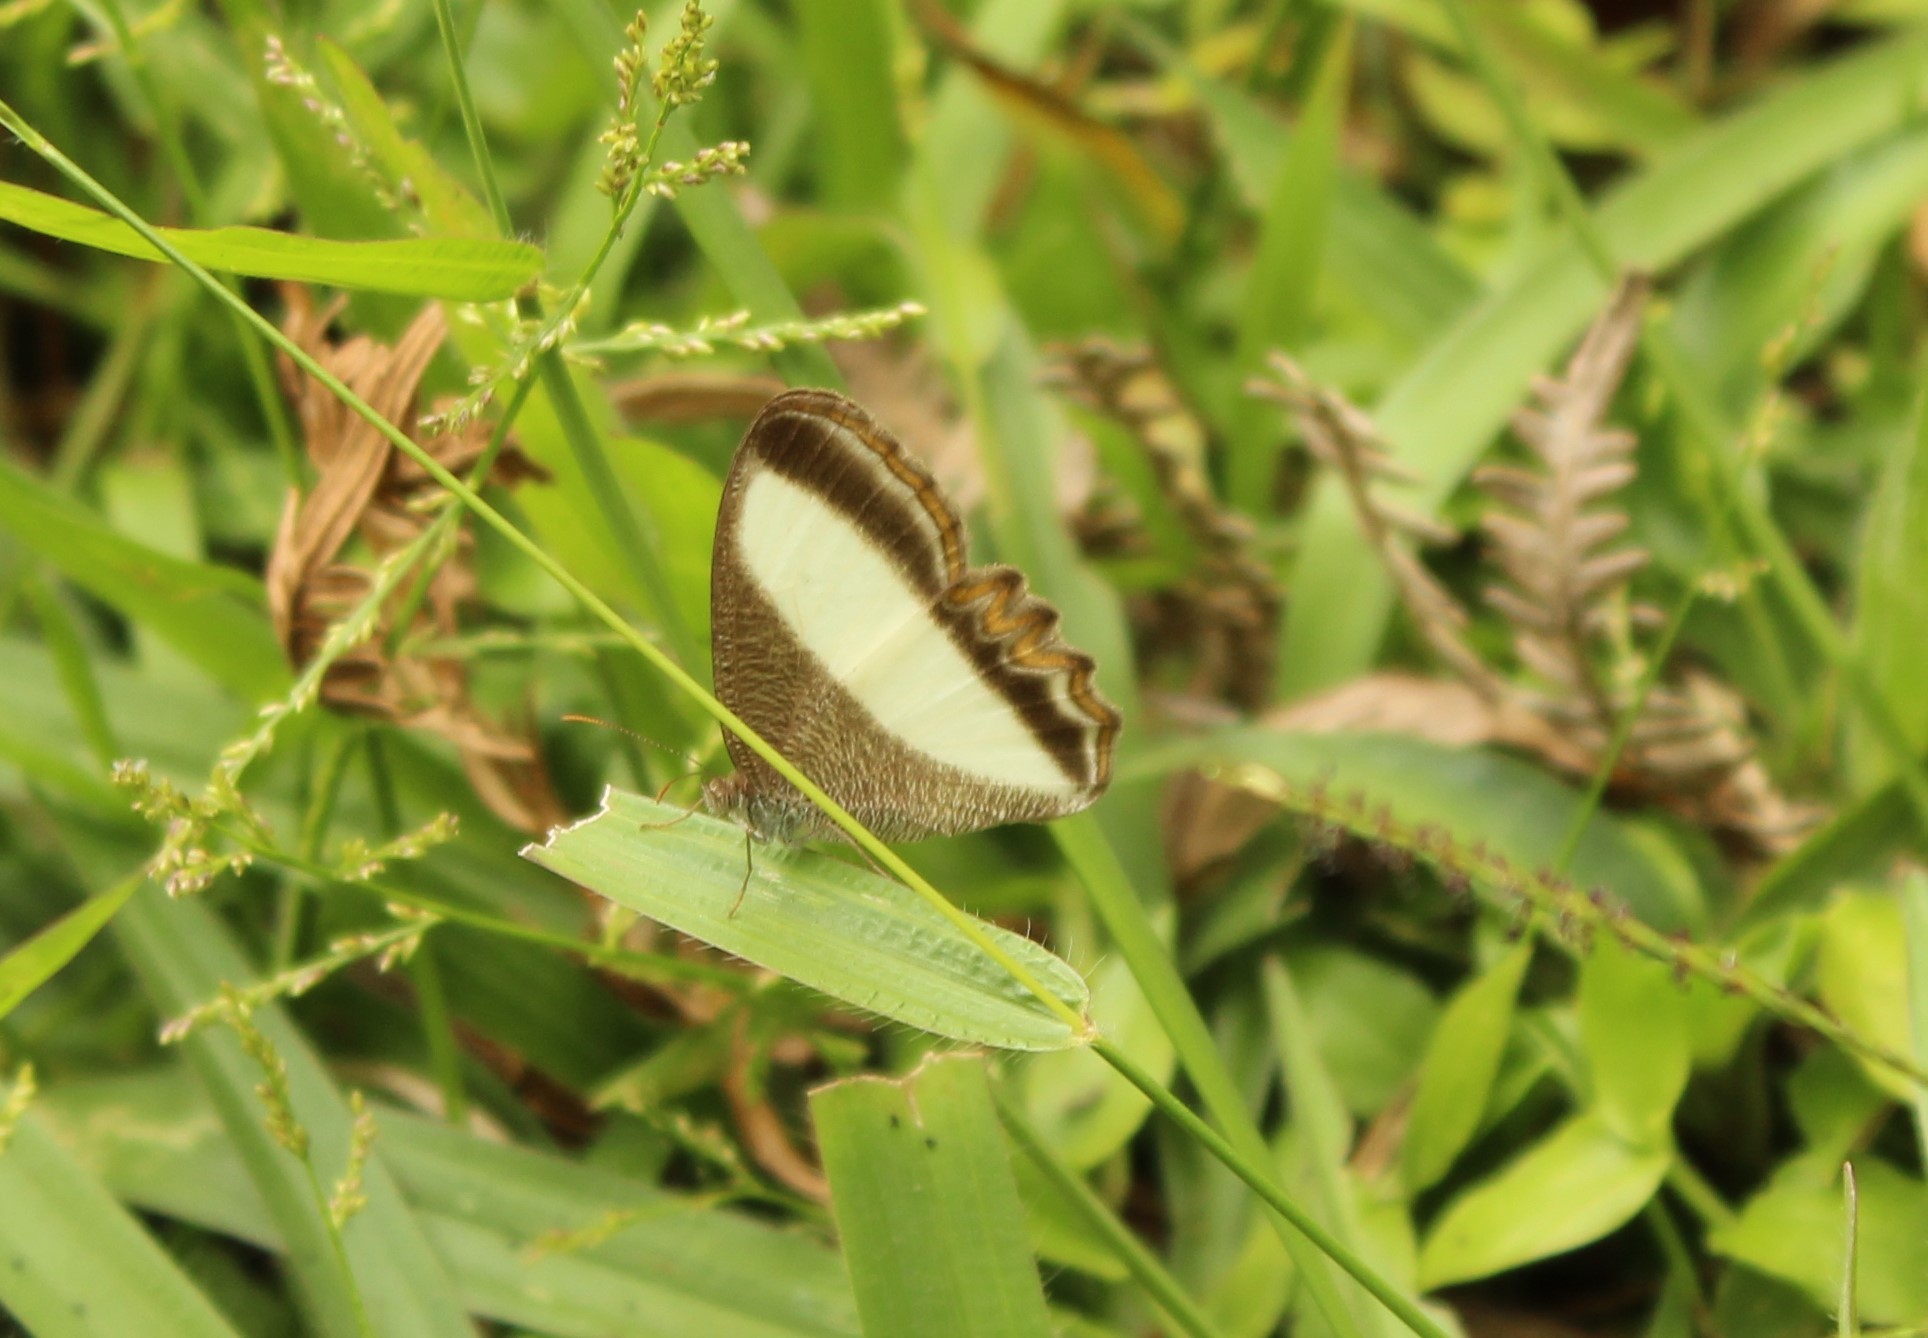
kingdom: Animalia
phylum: Arthropoda
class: Insecta
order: Lepidoptera
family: Nymphalidae
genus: Oressinoma
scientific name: Oressinoma typhla
